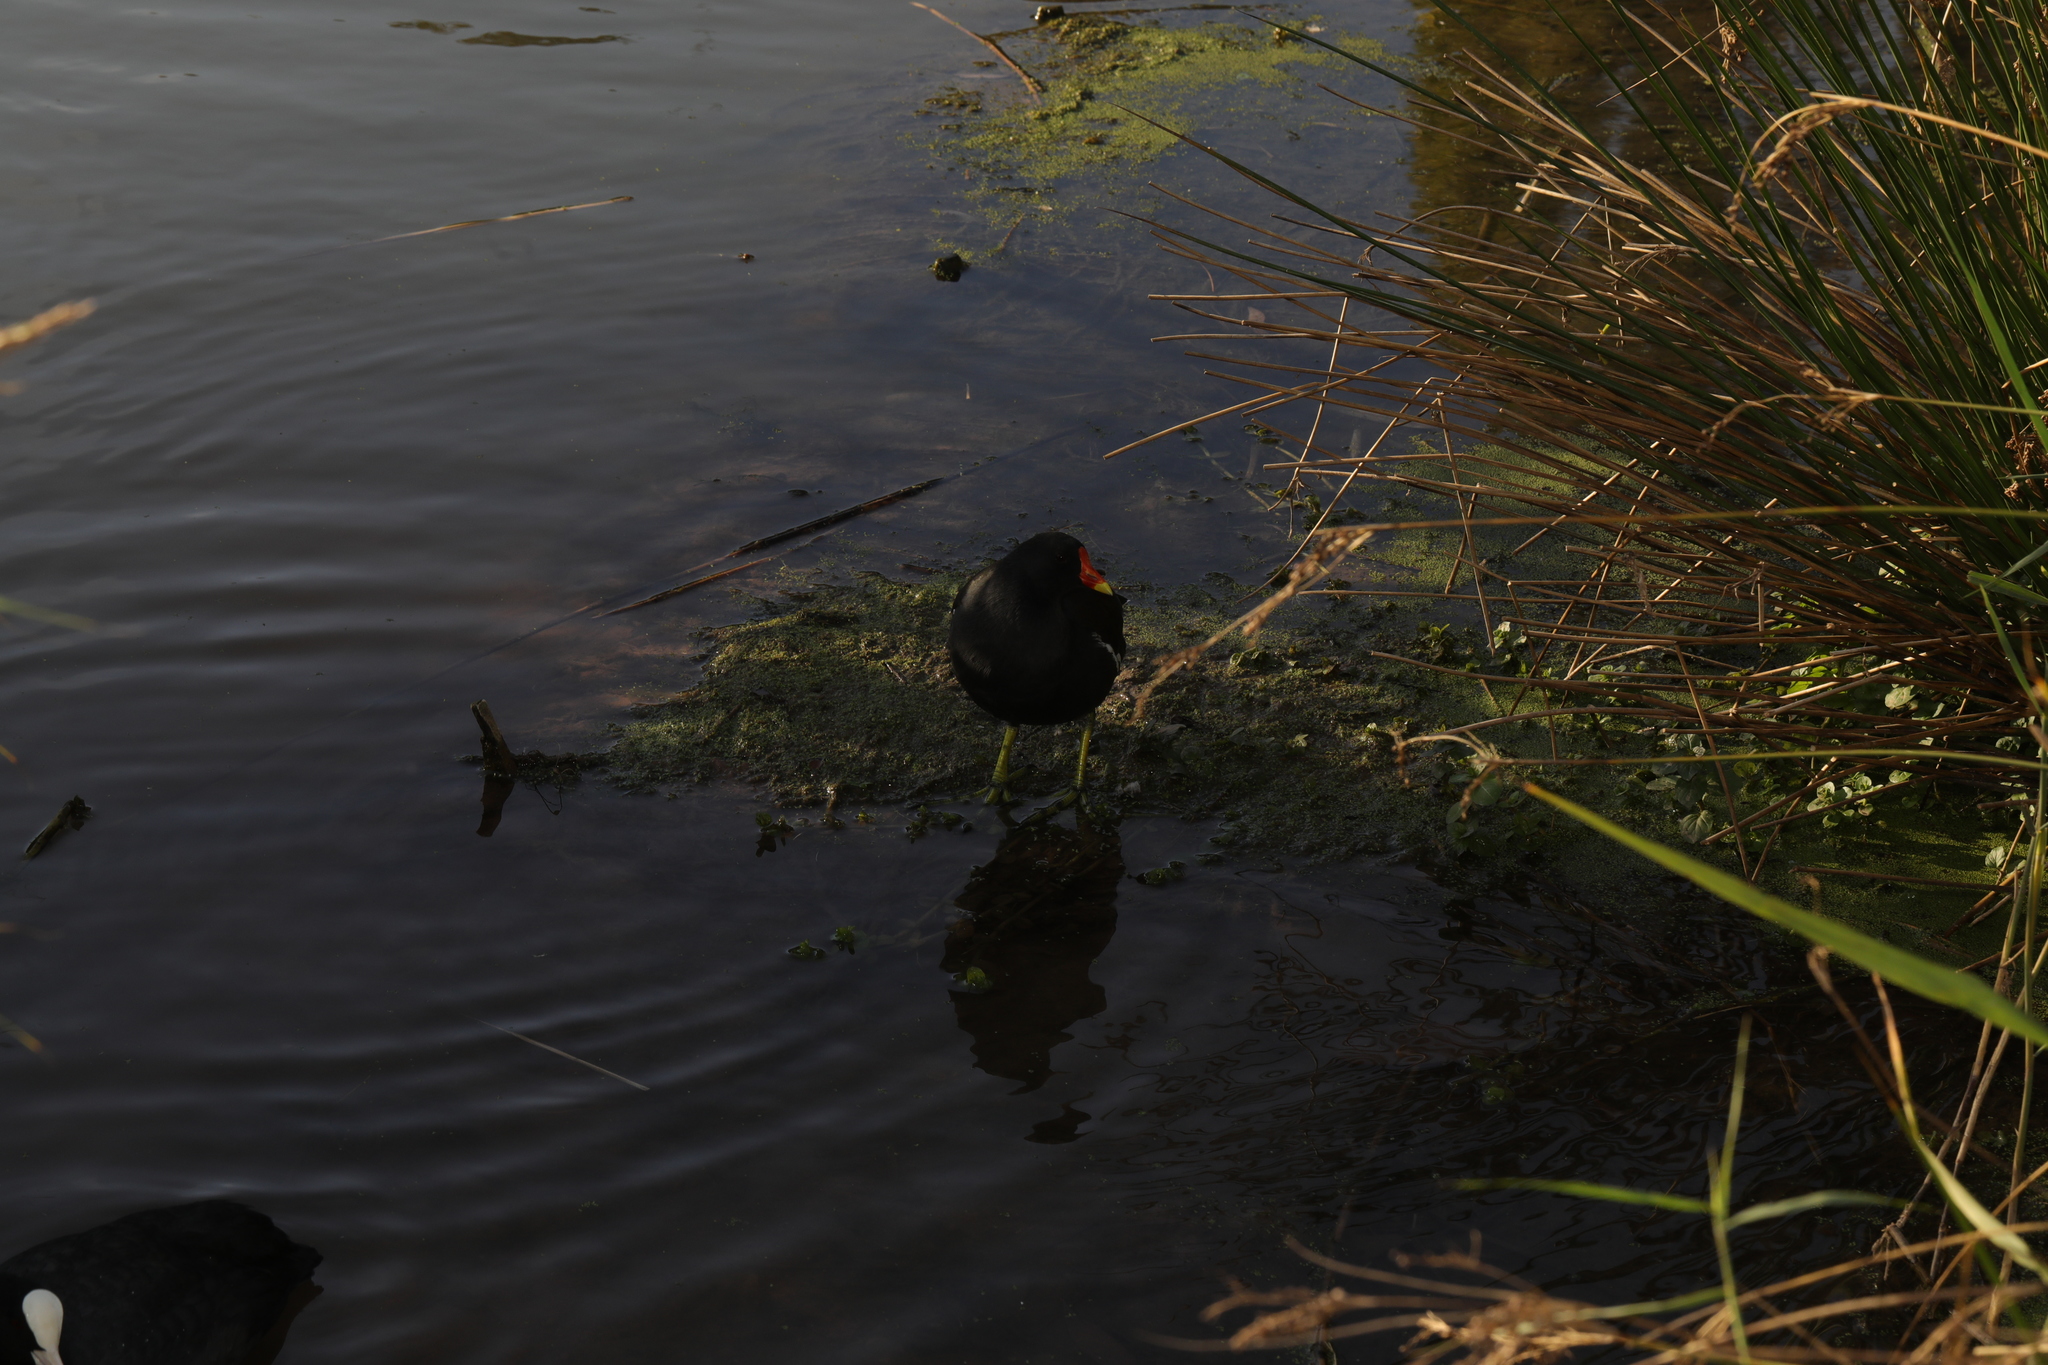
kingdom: Animalia
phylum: Chordata
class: Aves
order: Gruiformes
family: Rallidae
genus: Gallinula
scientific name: Gallinula chloropus
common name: Common moorhen
